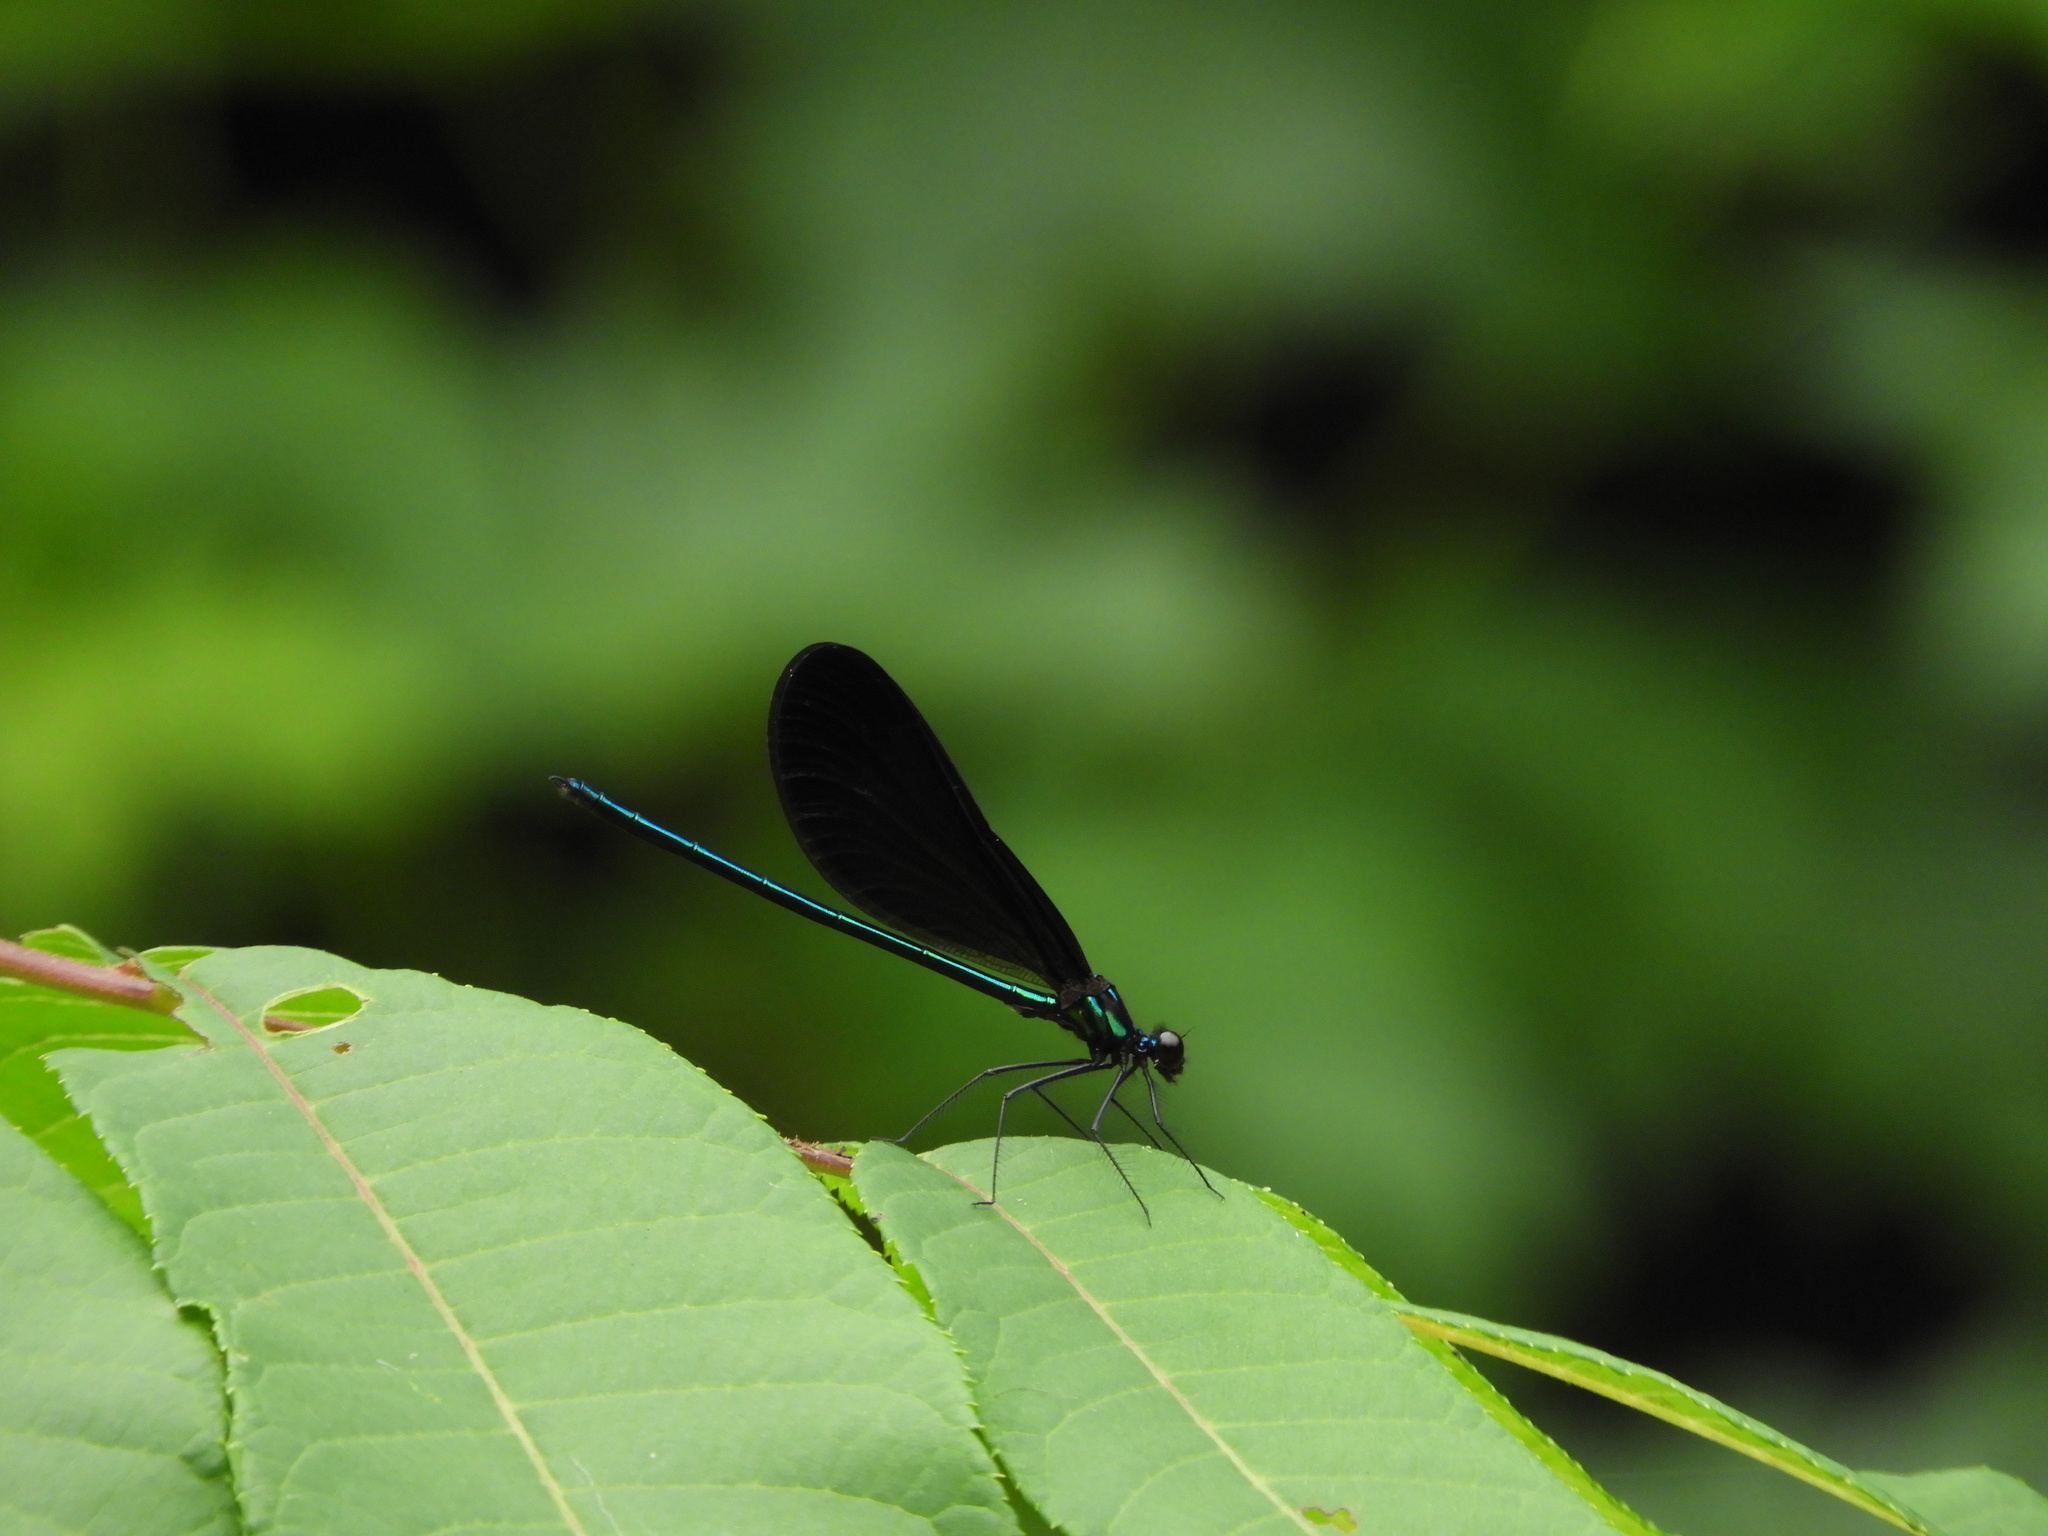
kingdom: Animalia
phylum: Arthropoda
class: Insecta
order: Odonata
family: Calopterygidae
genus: Calopteryx
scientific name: Calopteryx maculata
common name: Ebony jewelwing
